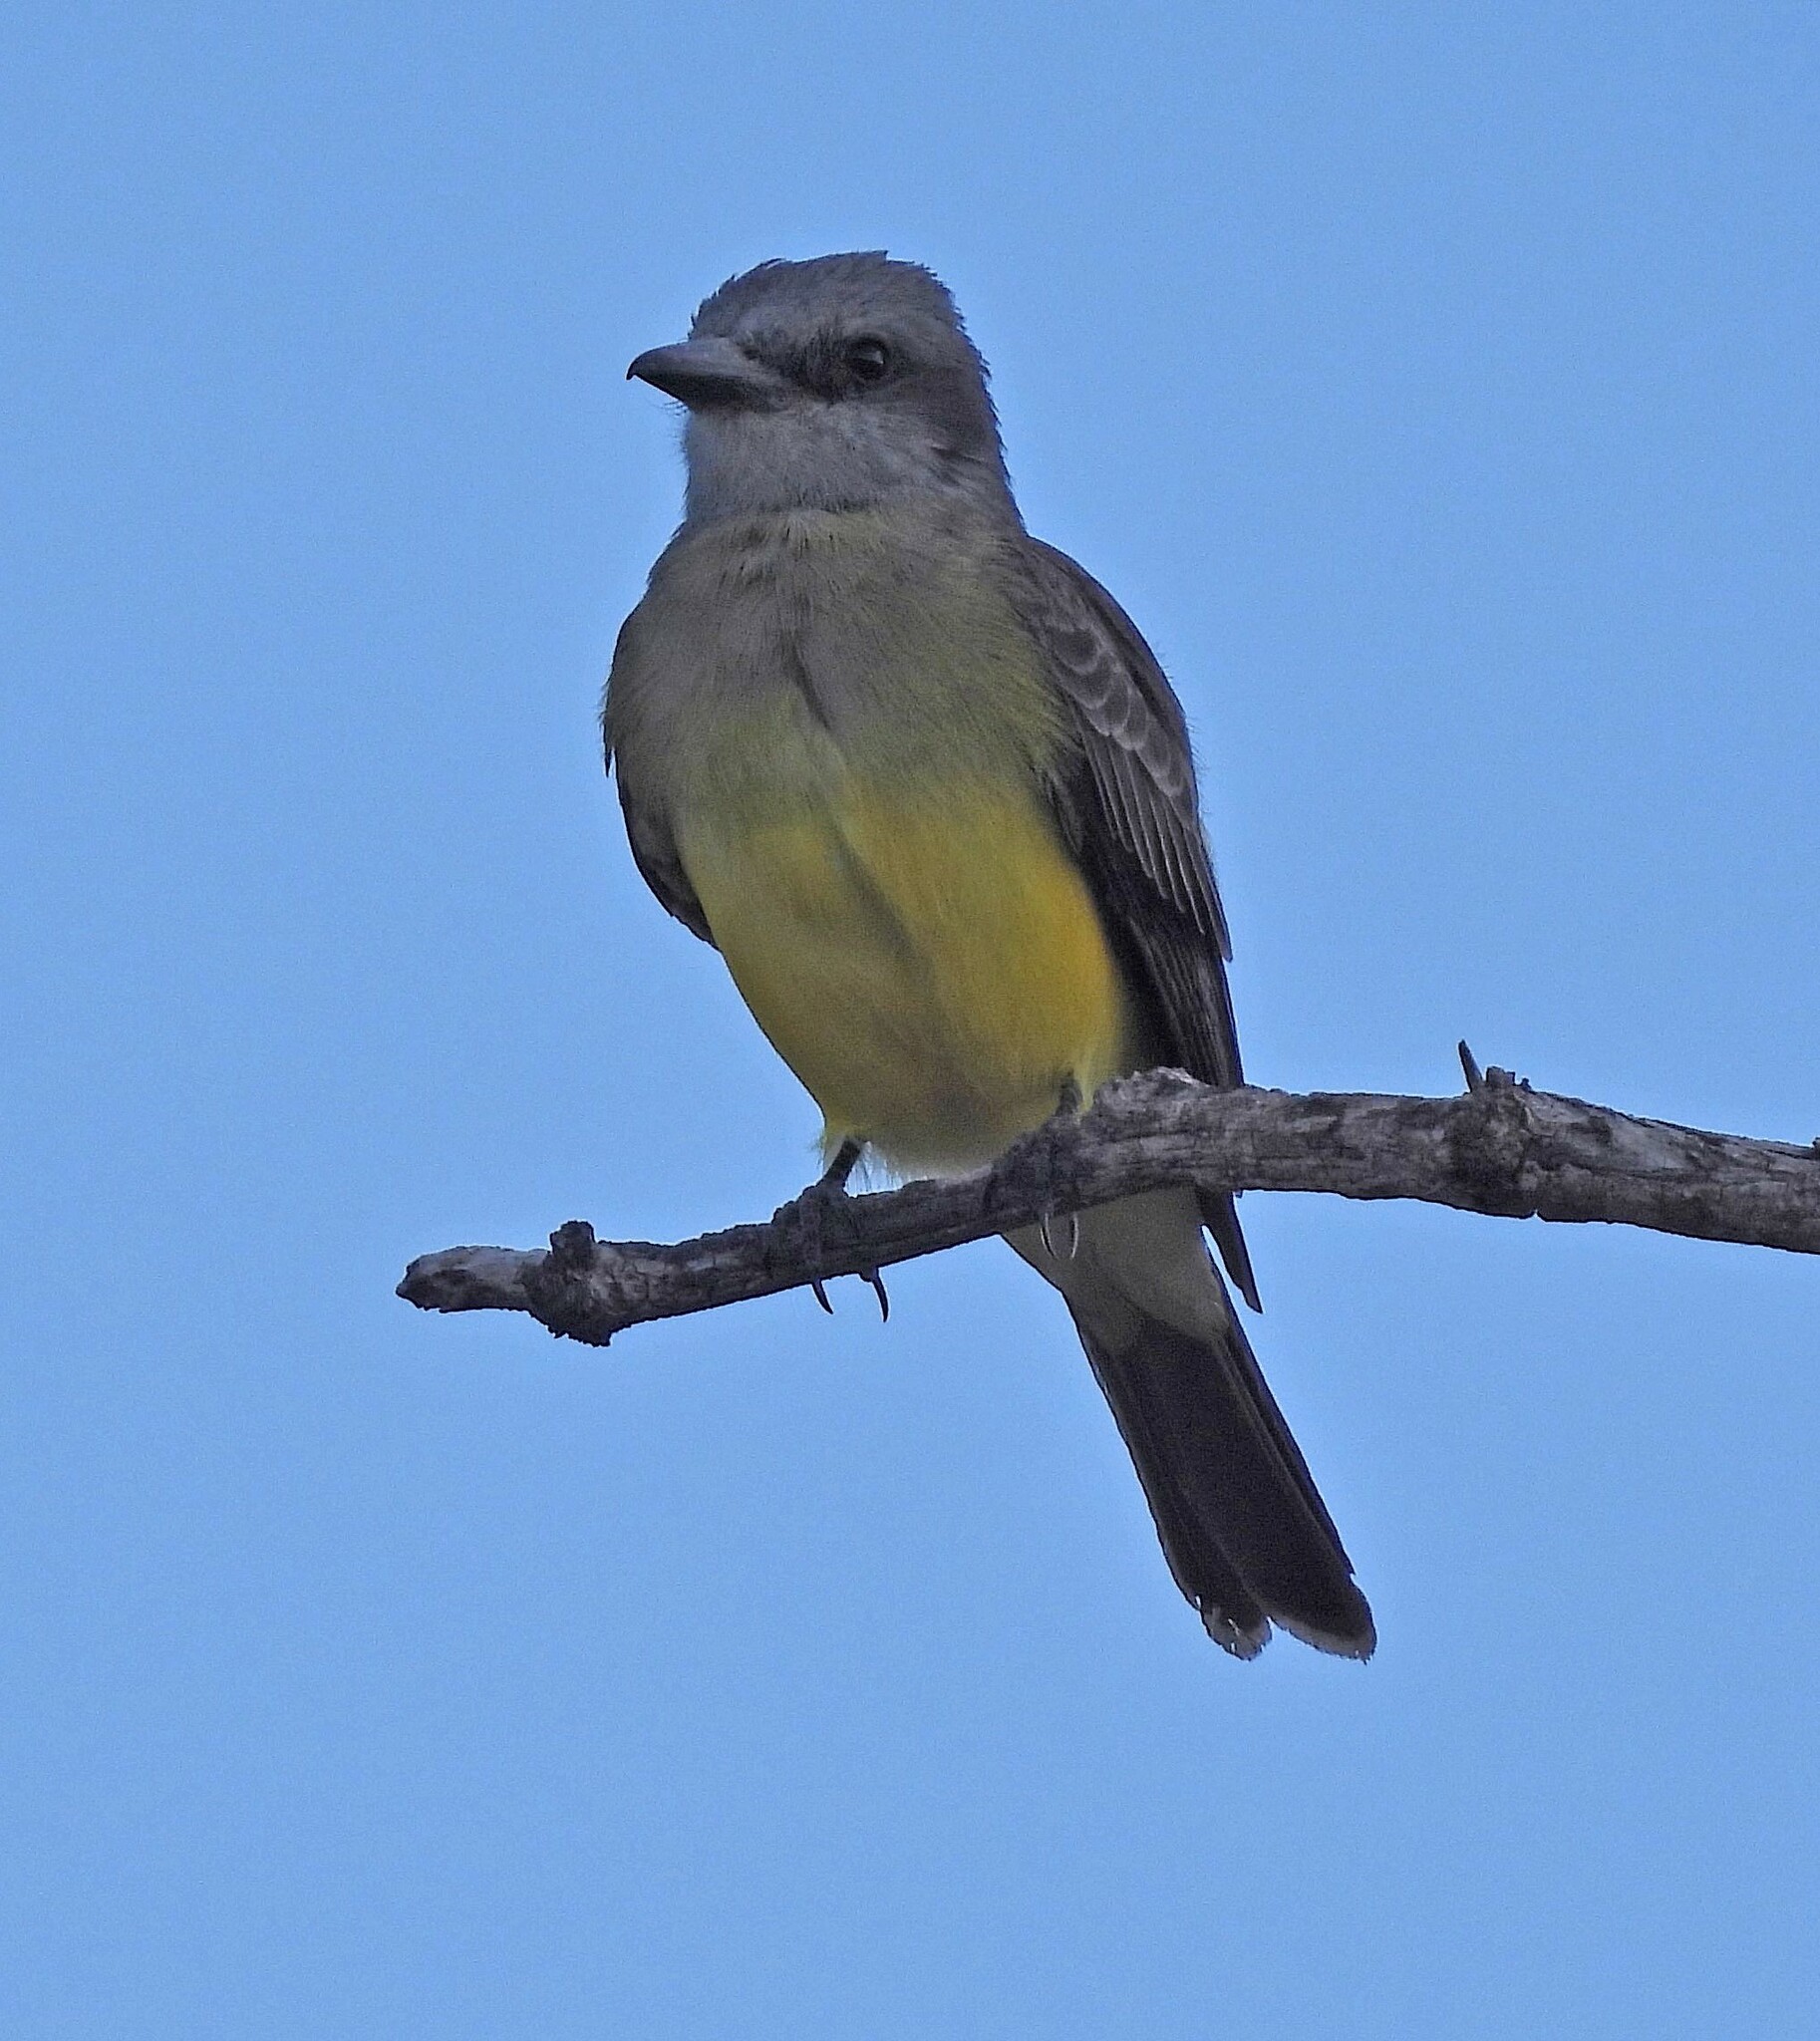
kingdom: Animalia
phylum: Chordata
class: Aves
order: Passeriformes
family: Tyrannidae
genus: Tyrannus
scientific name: Tyrannus melancholicus
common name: Tropical kingbird
